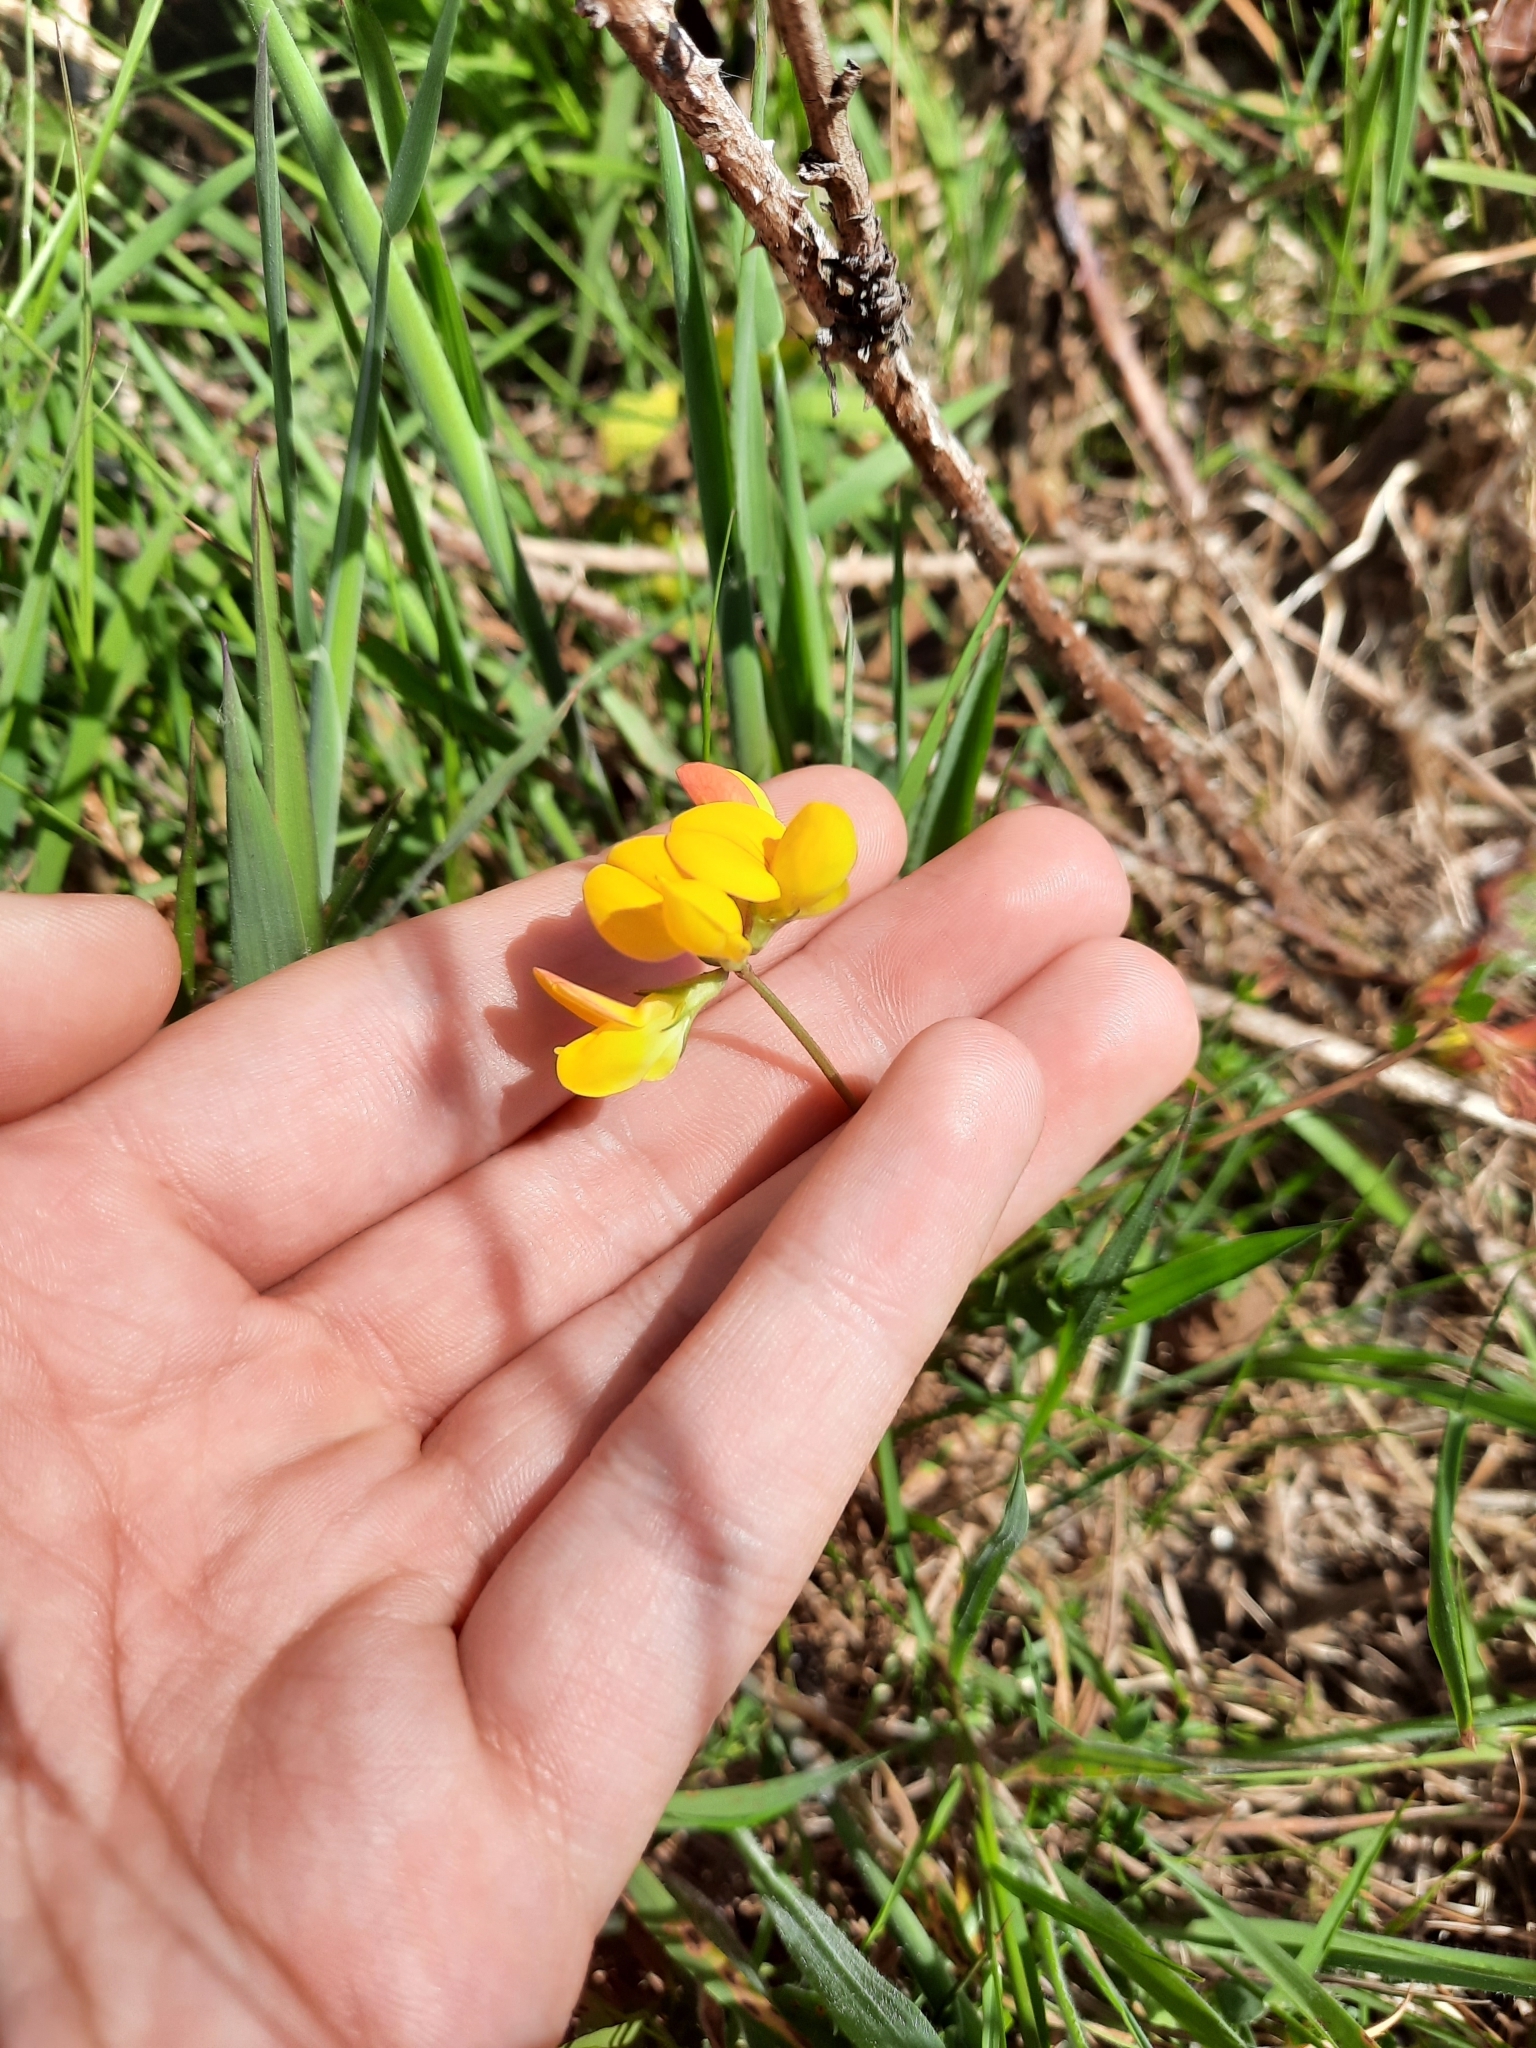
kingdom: Plantae
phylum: Tracheophyta
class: Magnoliopsida
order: Fabales
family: Fabaceae
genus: Lotus
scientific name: Lotus corniculatus
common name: Common bird's-foot-trefoil
